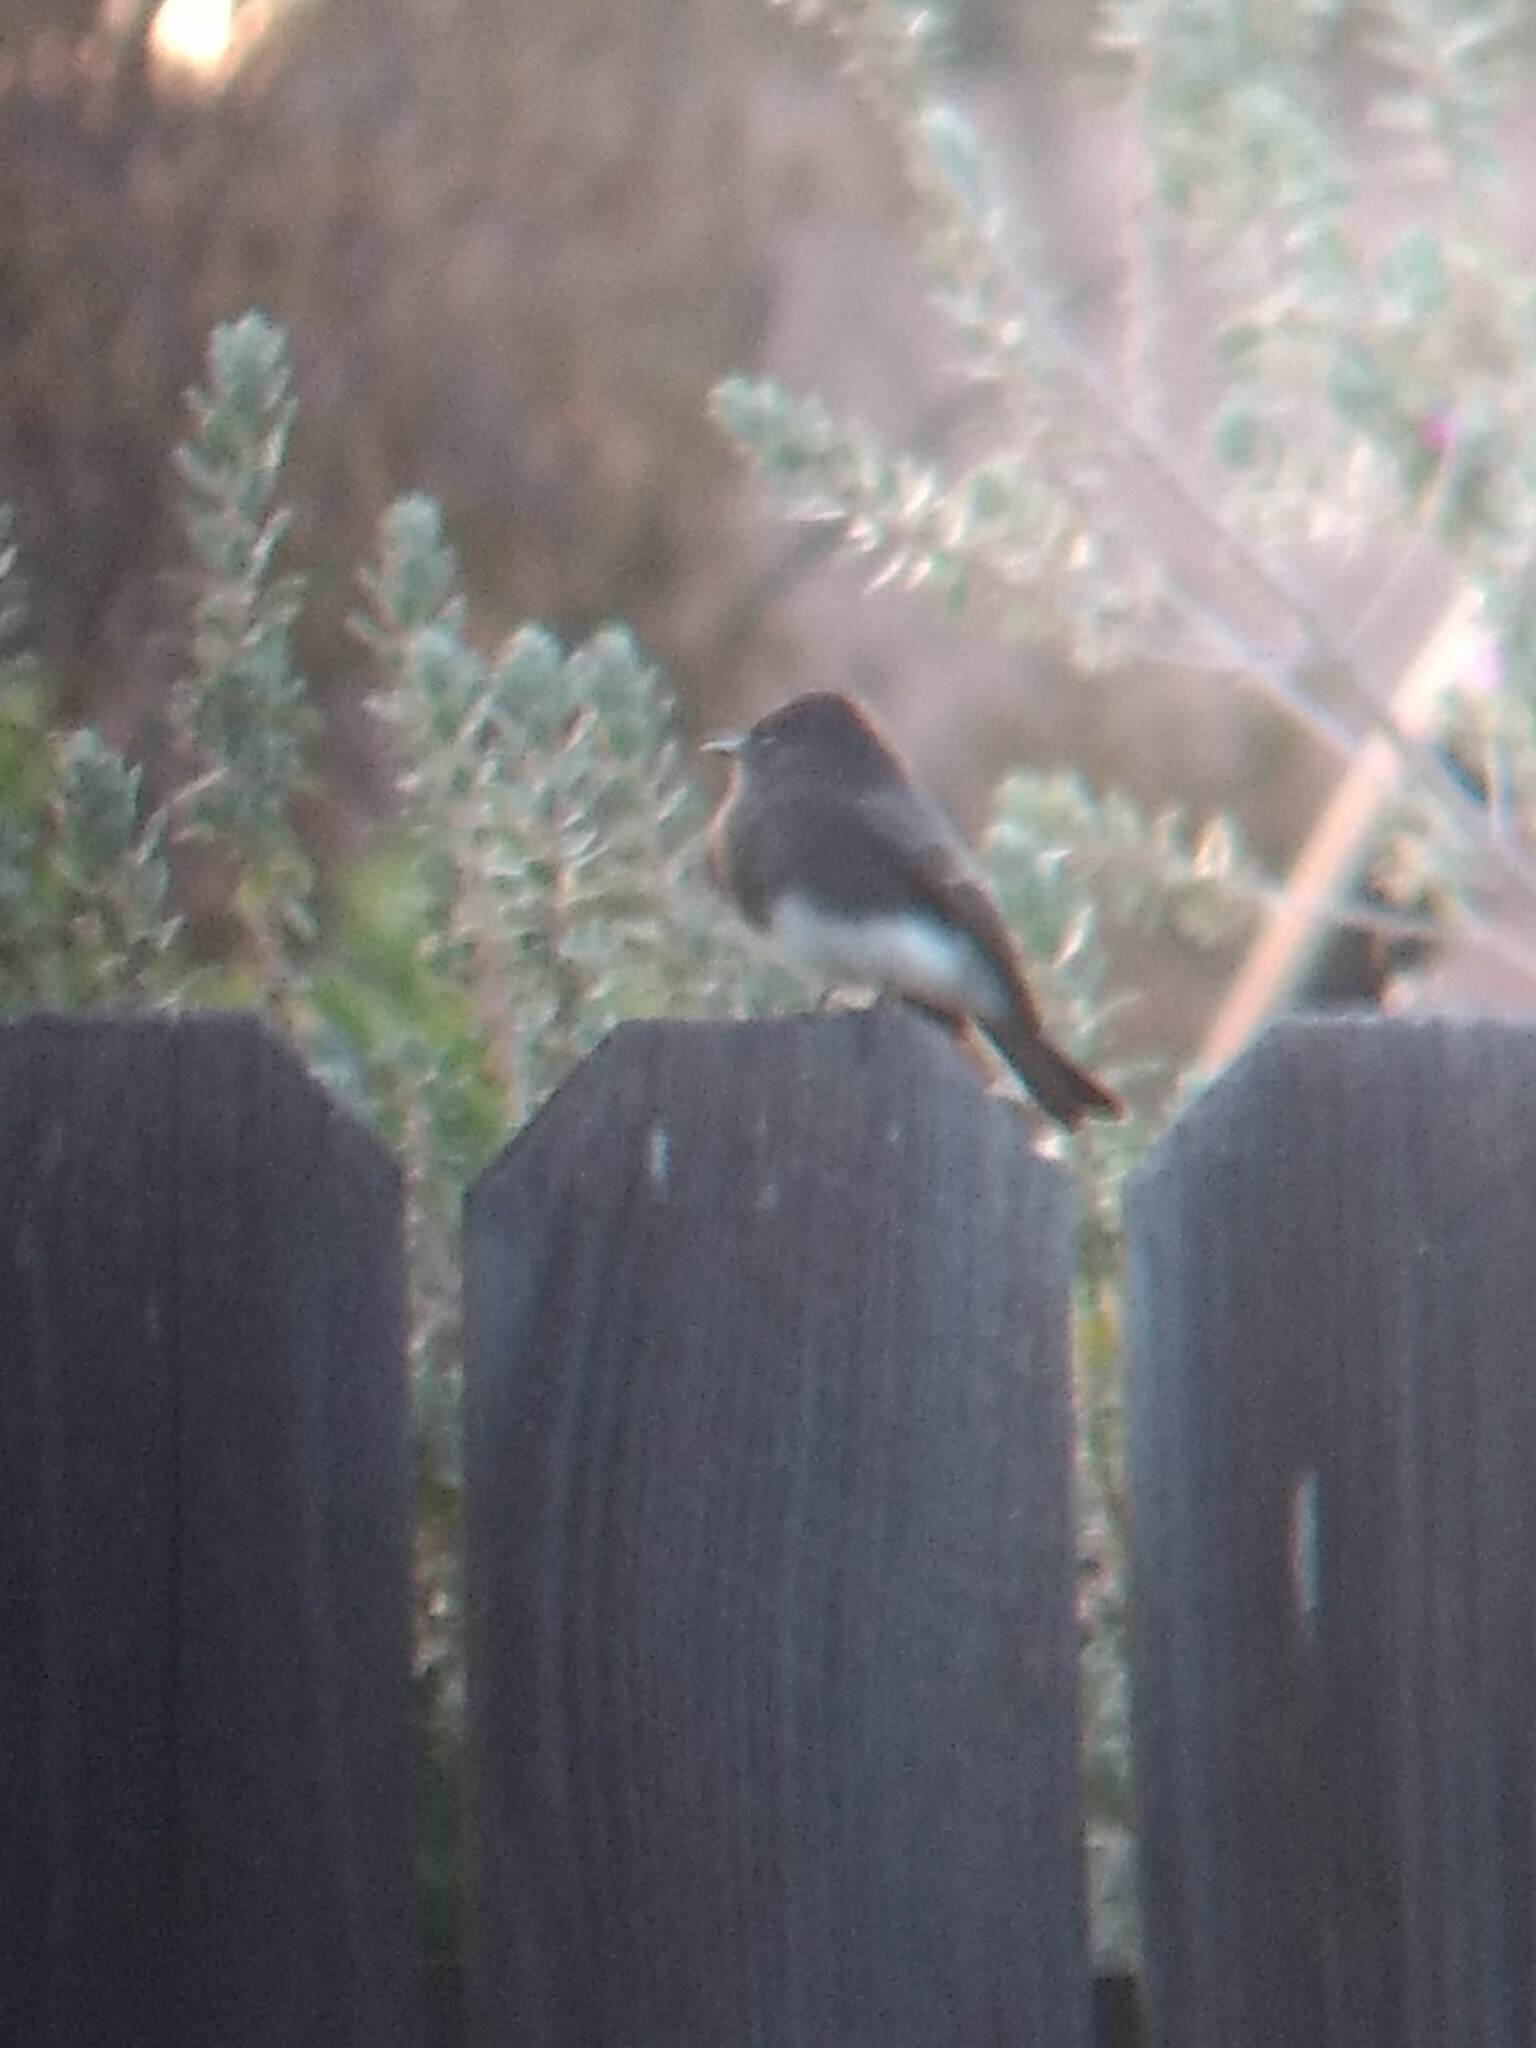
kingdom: Animalia
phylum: Chordata
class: Aves
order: Passeriformes
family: Tyrannidae
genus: Sayornis
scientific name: Sayornis nigricans
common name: Black phoebe
